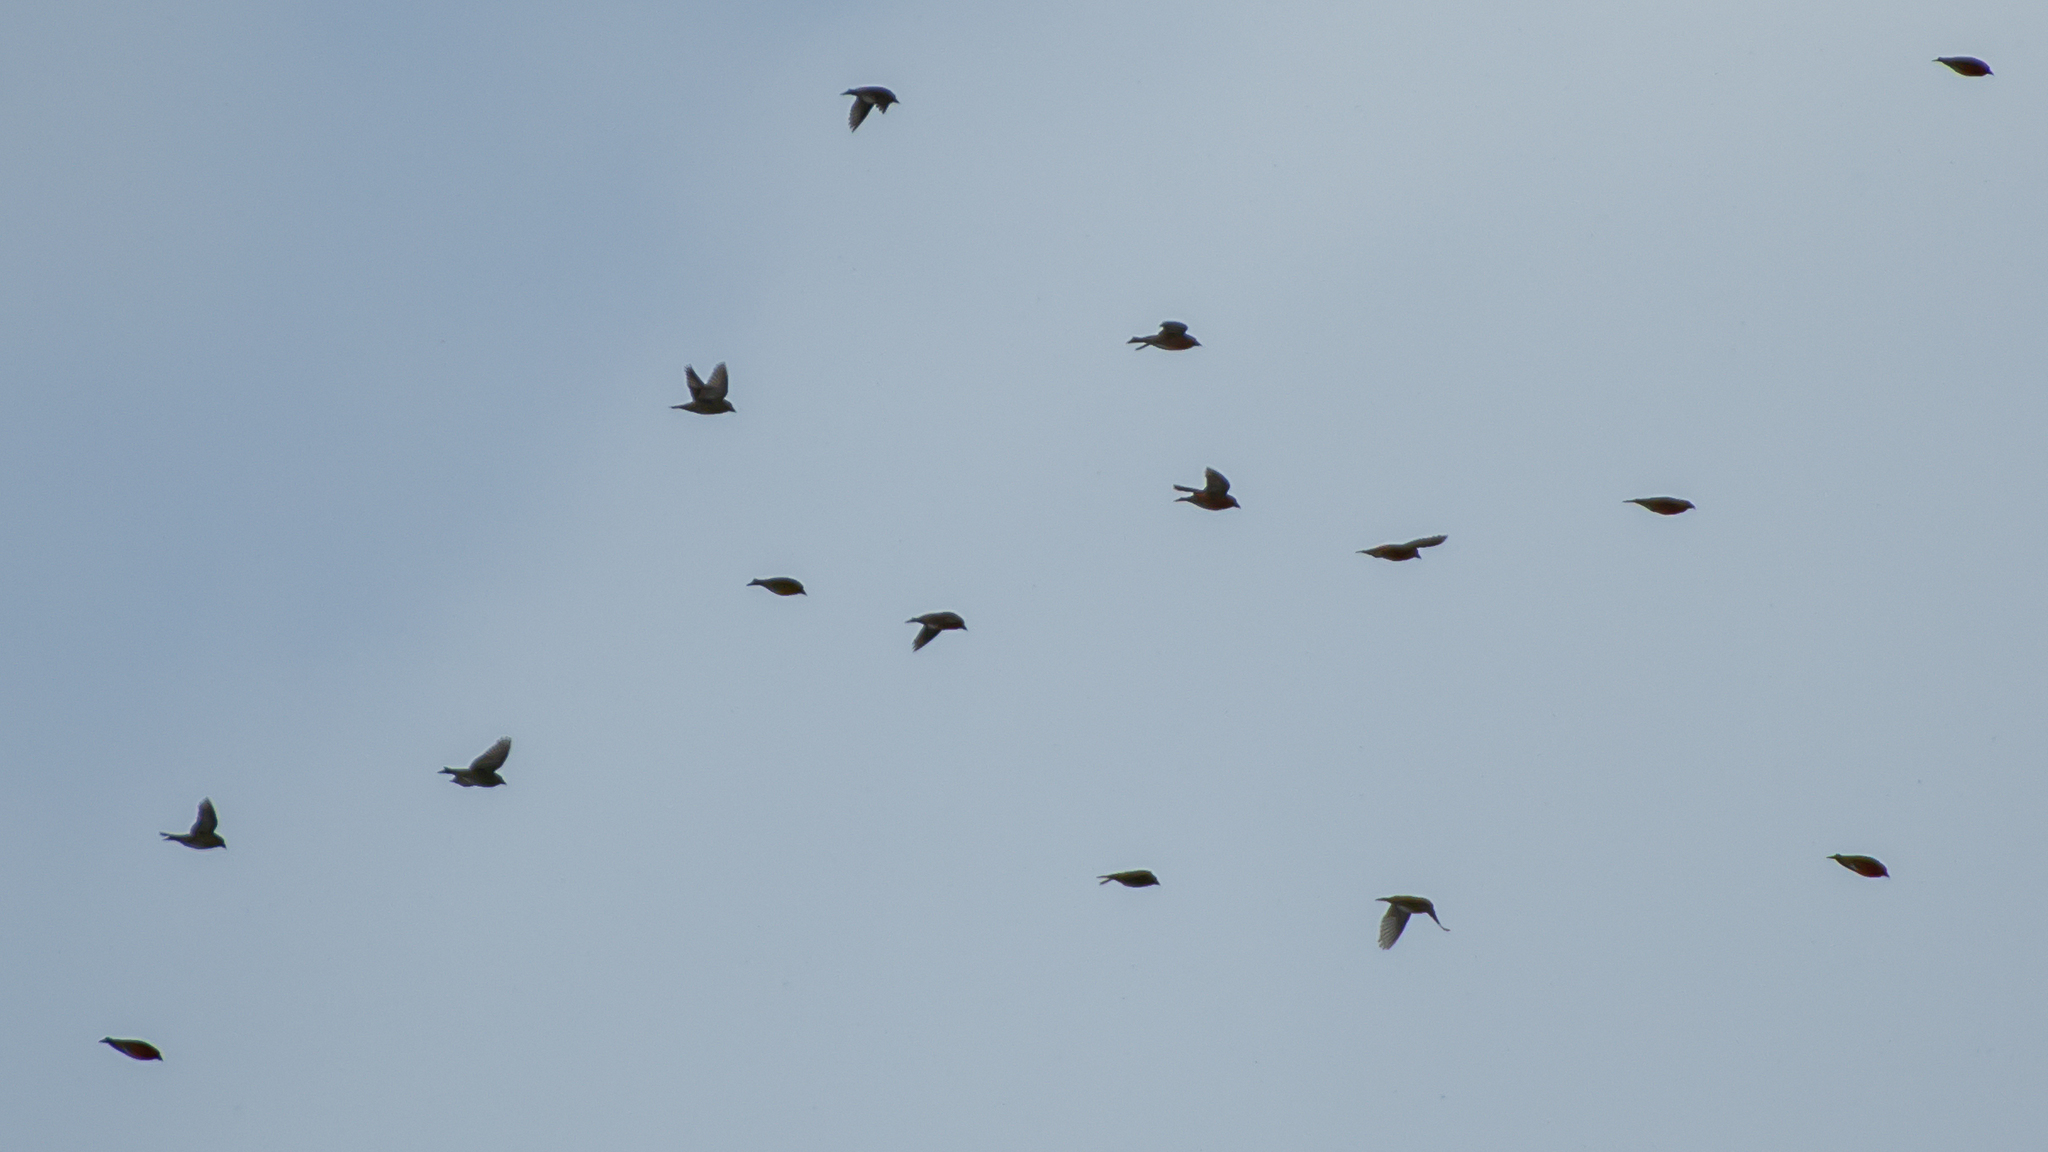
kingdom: Animalia
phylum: Chordata
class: Aves
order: Passeriformes
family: Fringillidae
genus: Loxia
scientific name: Loxia curvirostra
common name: Red crossbill
